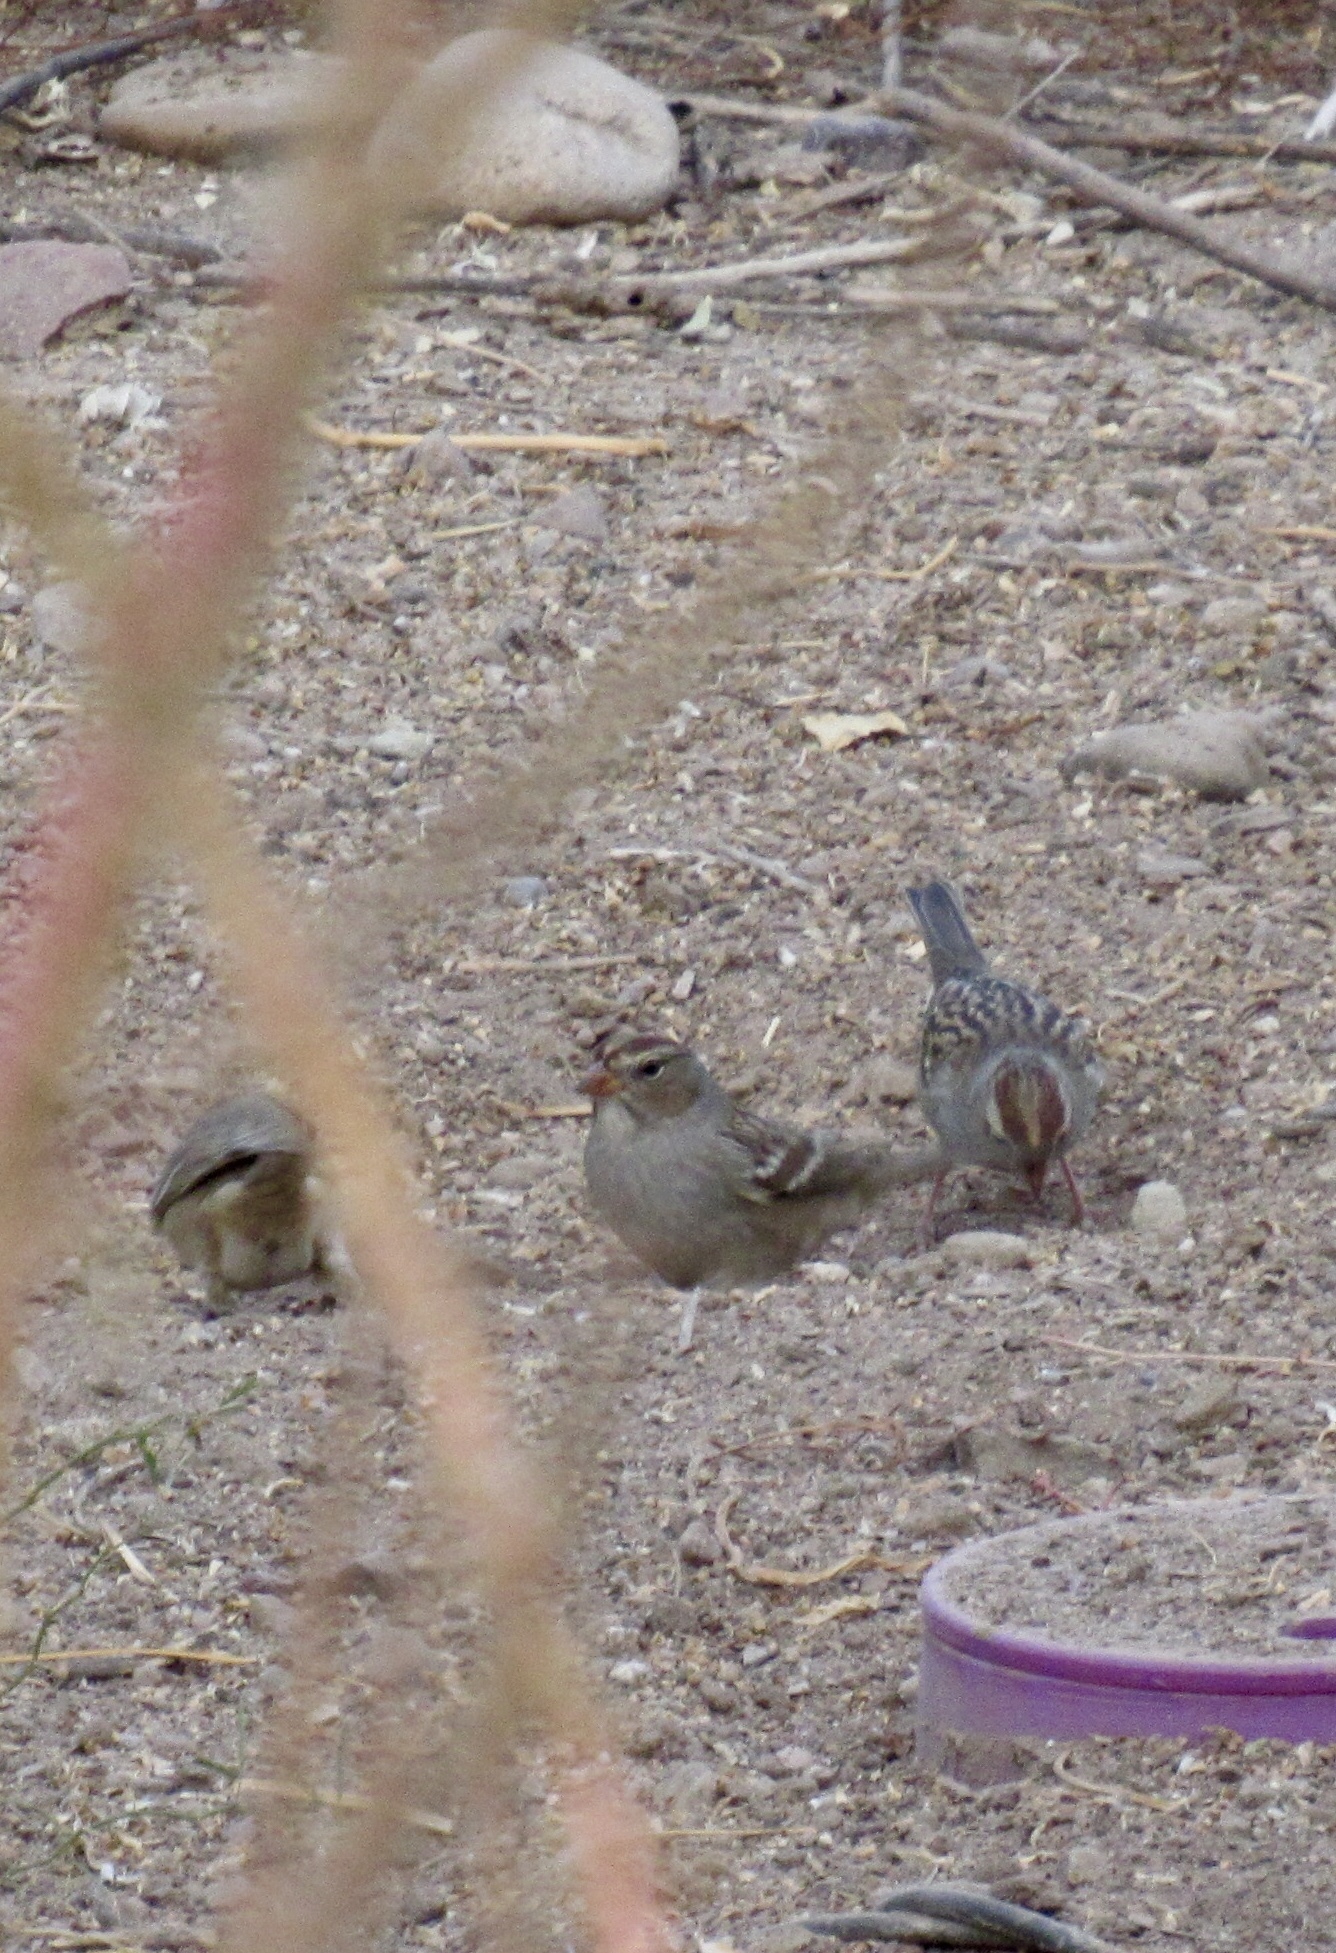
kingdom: Animalia
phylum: Chordata
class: Aves
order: Passeriformes
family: Passerellidae
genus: Zonotrichia
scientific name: Zonotrichia leucophrys
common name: White-crowned sparrow
